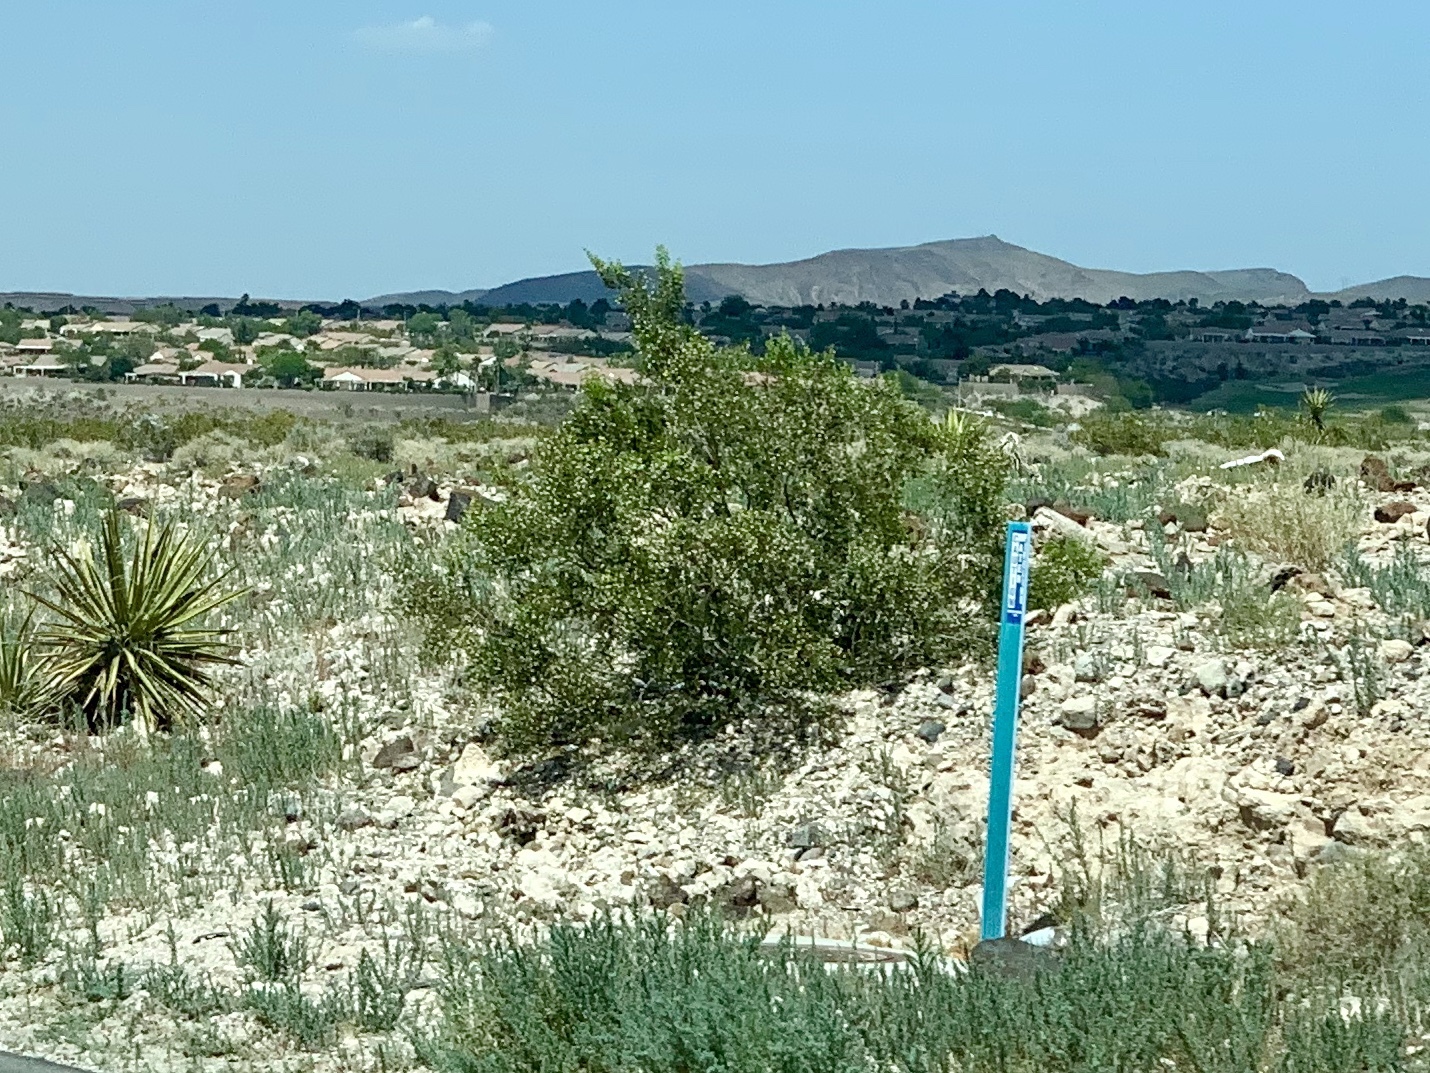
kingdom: Plantae
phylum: Tracheophyta
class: Magnoliopsida
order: Zygophyllales
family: Zygophyllaceae
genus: Larrea
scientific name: Larrea tridentata
